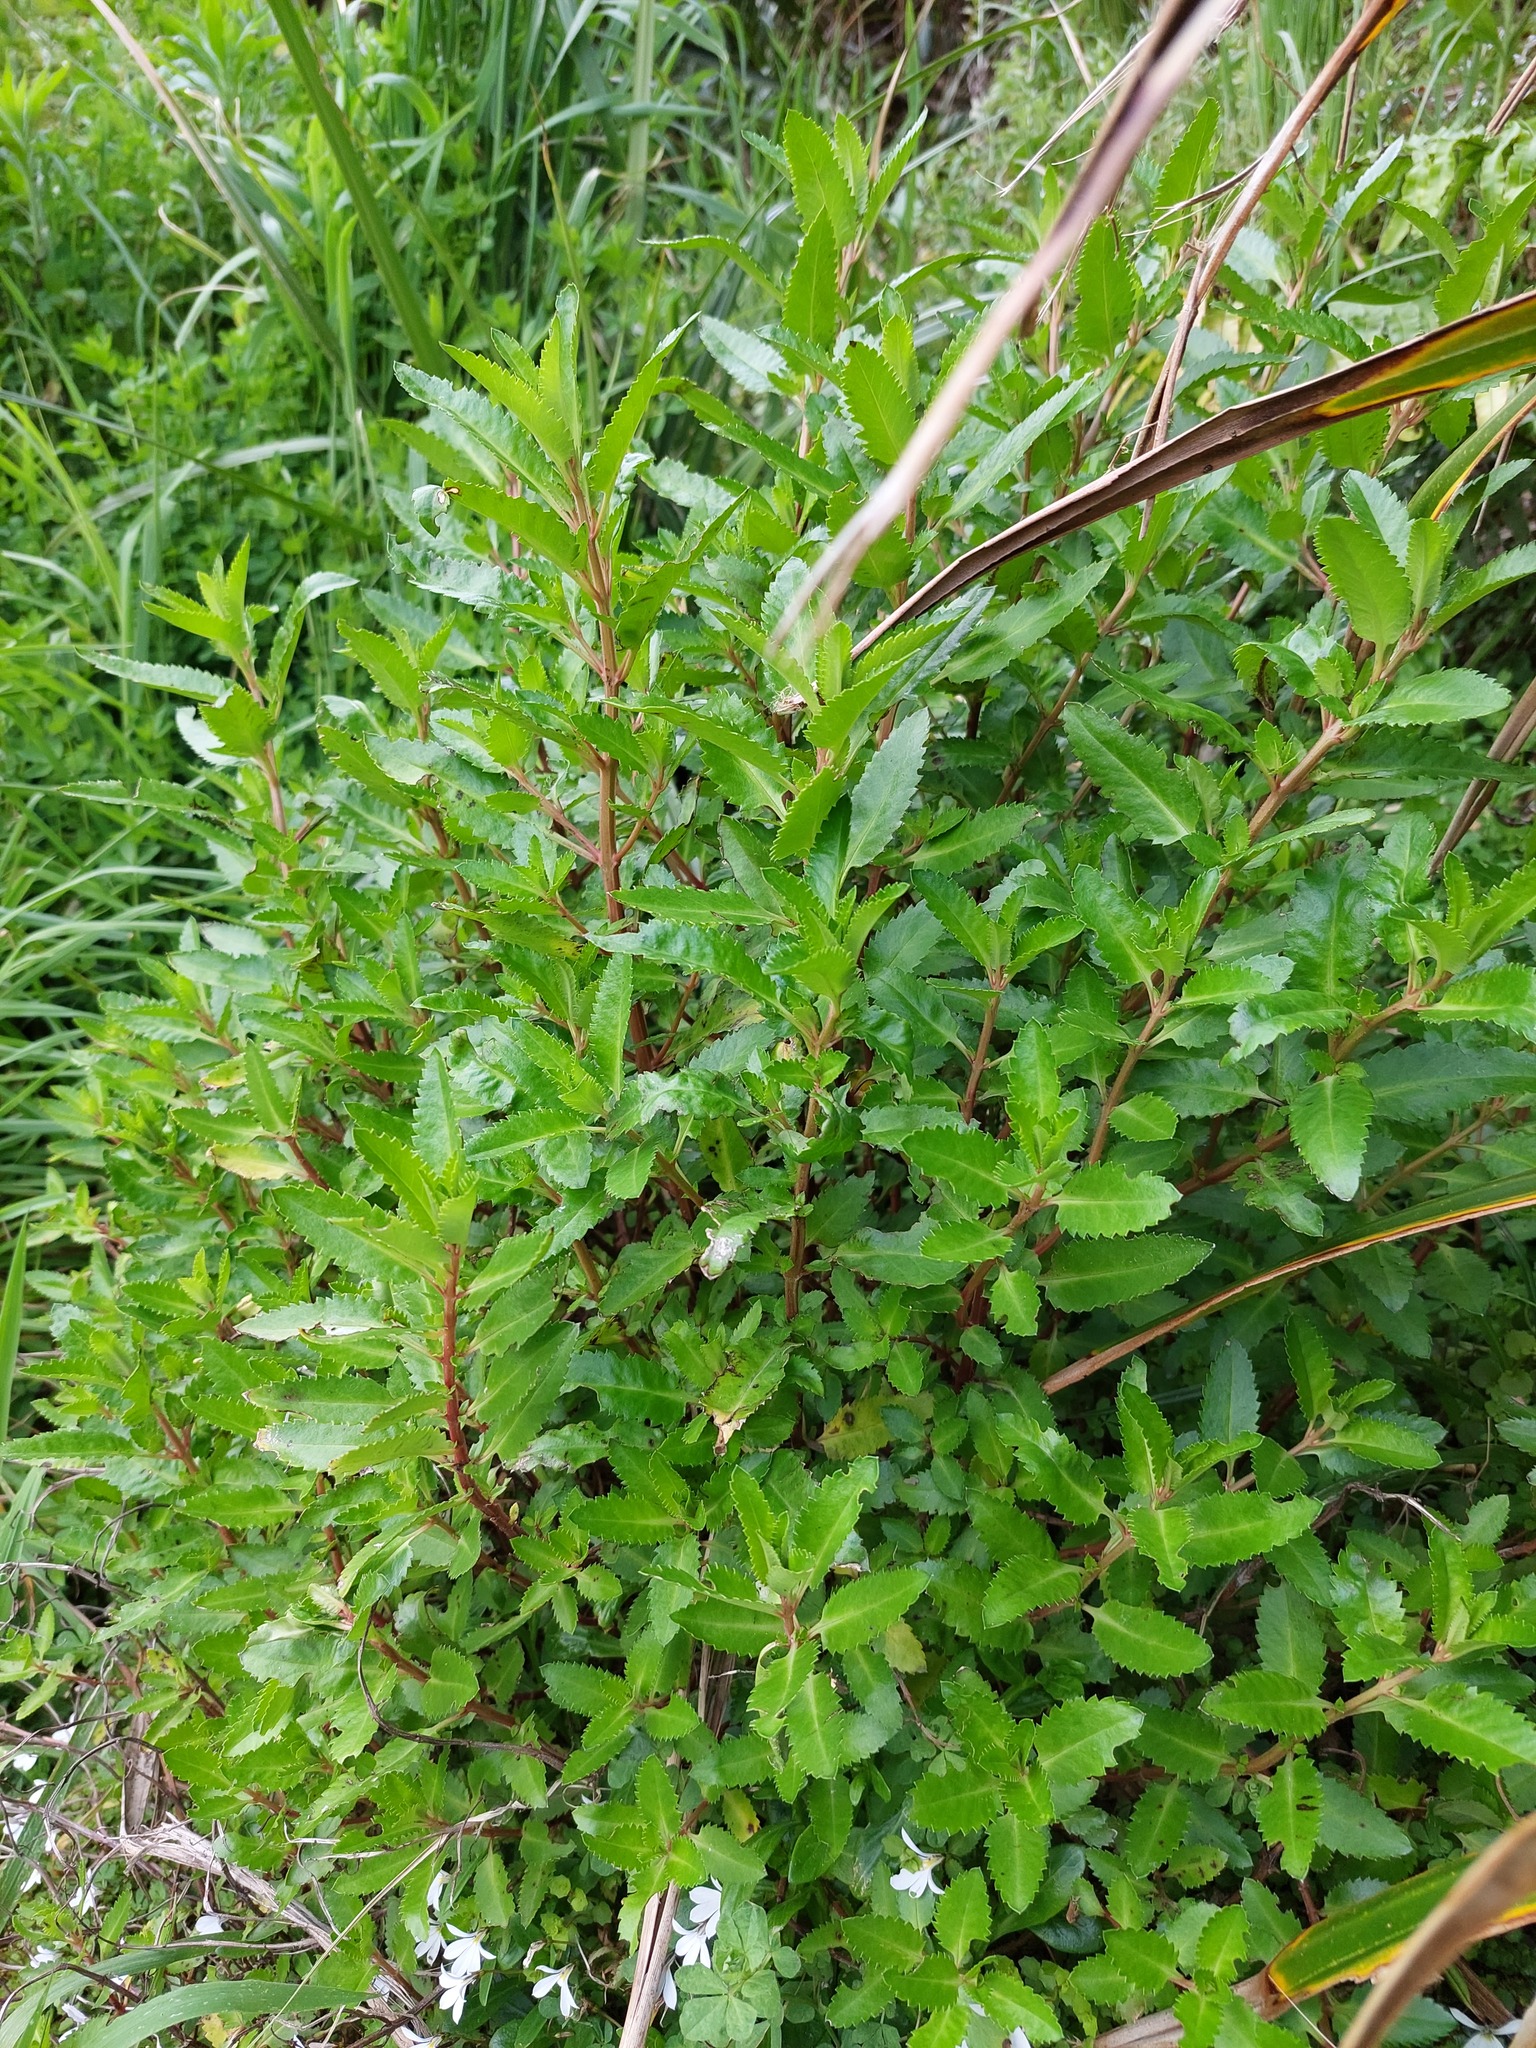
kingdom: Plantae
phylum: Tracheophyta
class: Magnoliopsida
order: Saxifragales
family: Haloragaceae
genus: Haloragis
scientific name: Haloragis erecta
